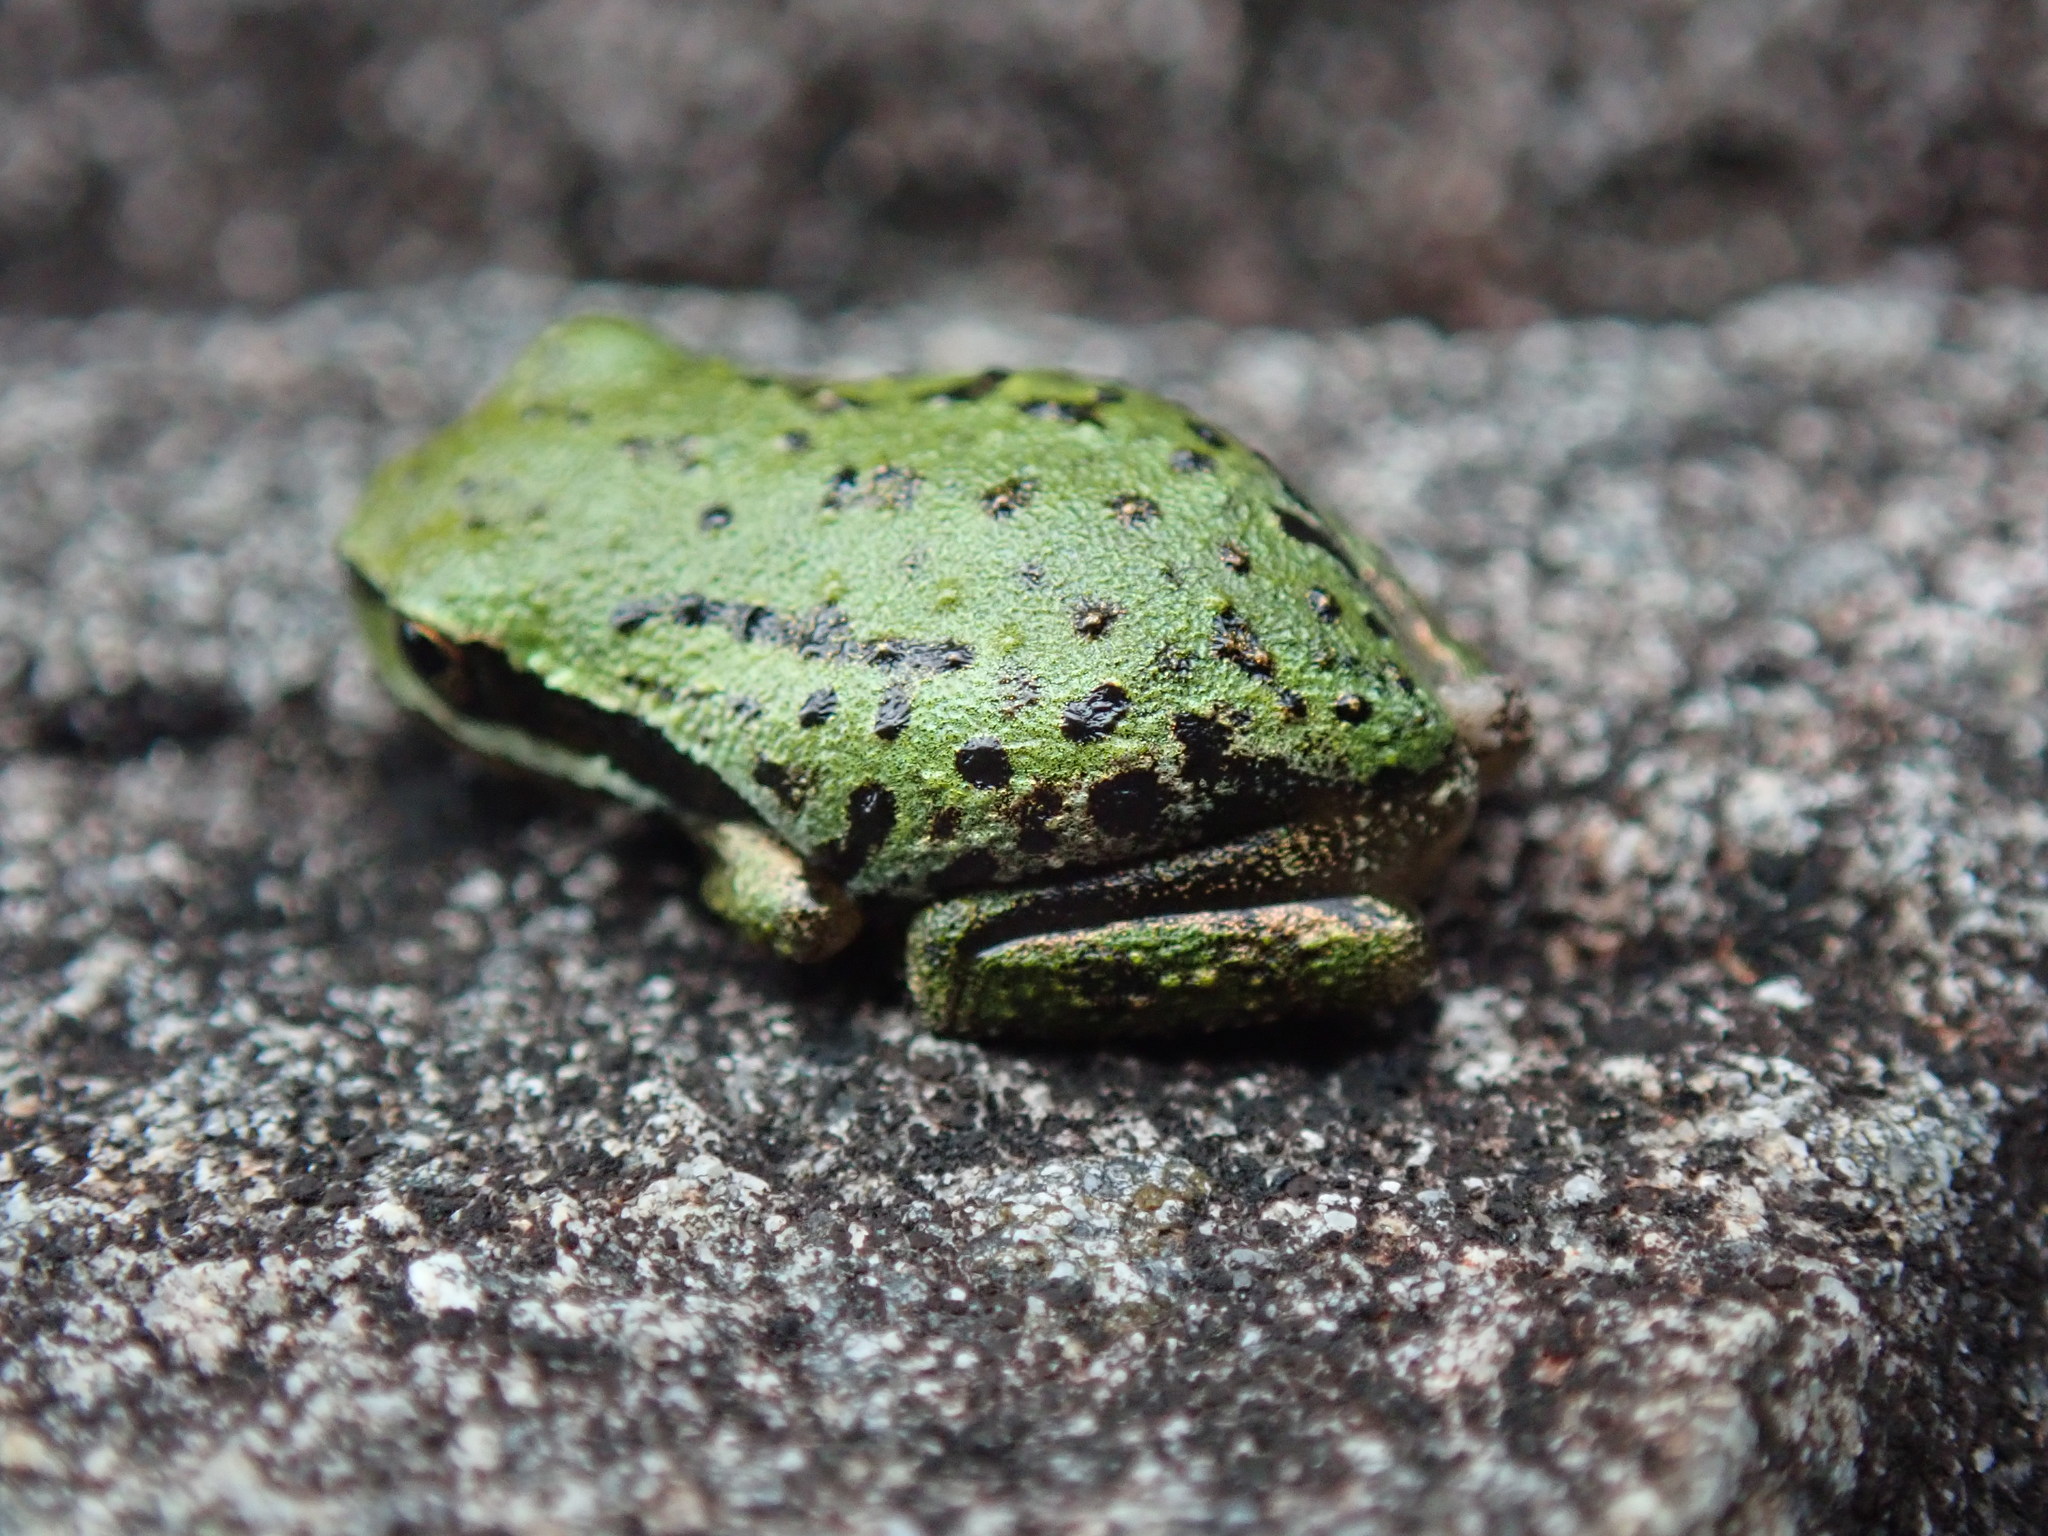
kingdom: Animalia
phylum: Chordata
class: Amphibia
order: Anura
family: Hylidae
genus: Pseudacris
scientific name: Pseudacris regilla
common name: Pacific chorus frog
